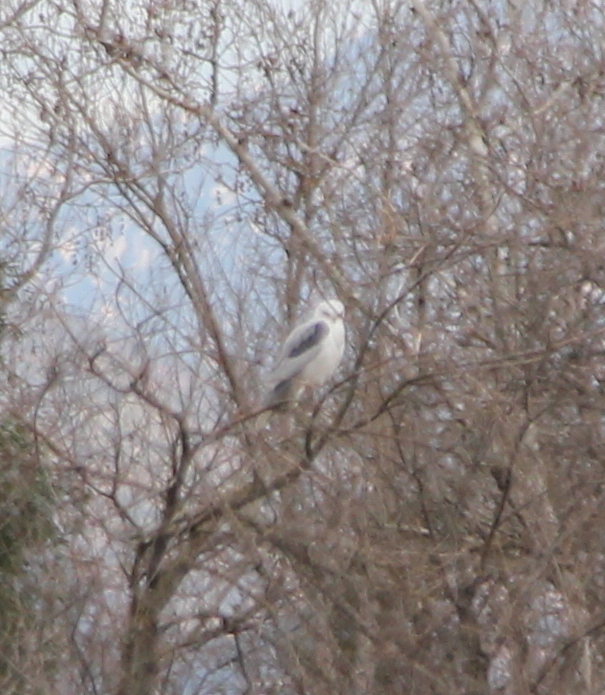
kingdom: Animalia
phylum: Chordata
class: Aves
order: Accipitriformes
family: Accipitridae
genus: Elanus
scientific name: Elanus leucurus
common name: White-tailed kite
